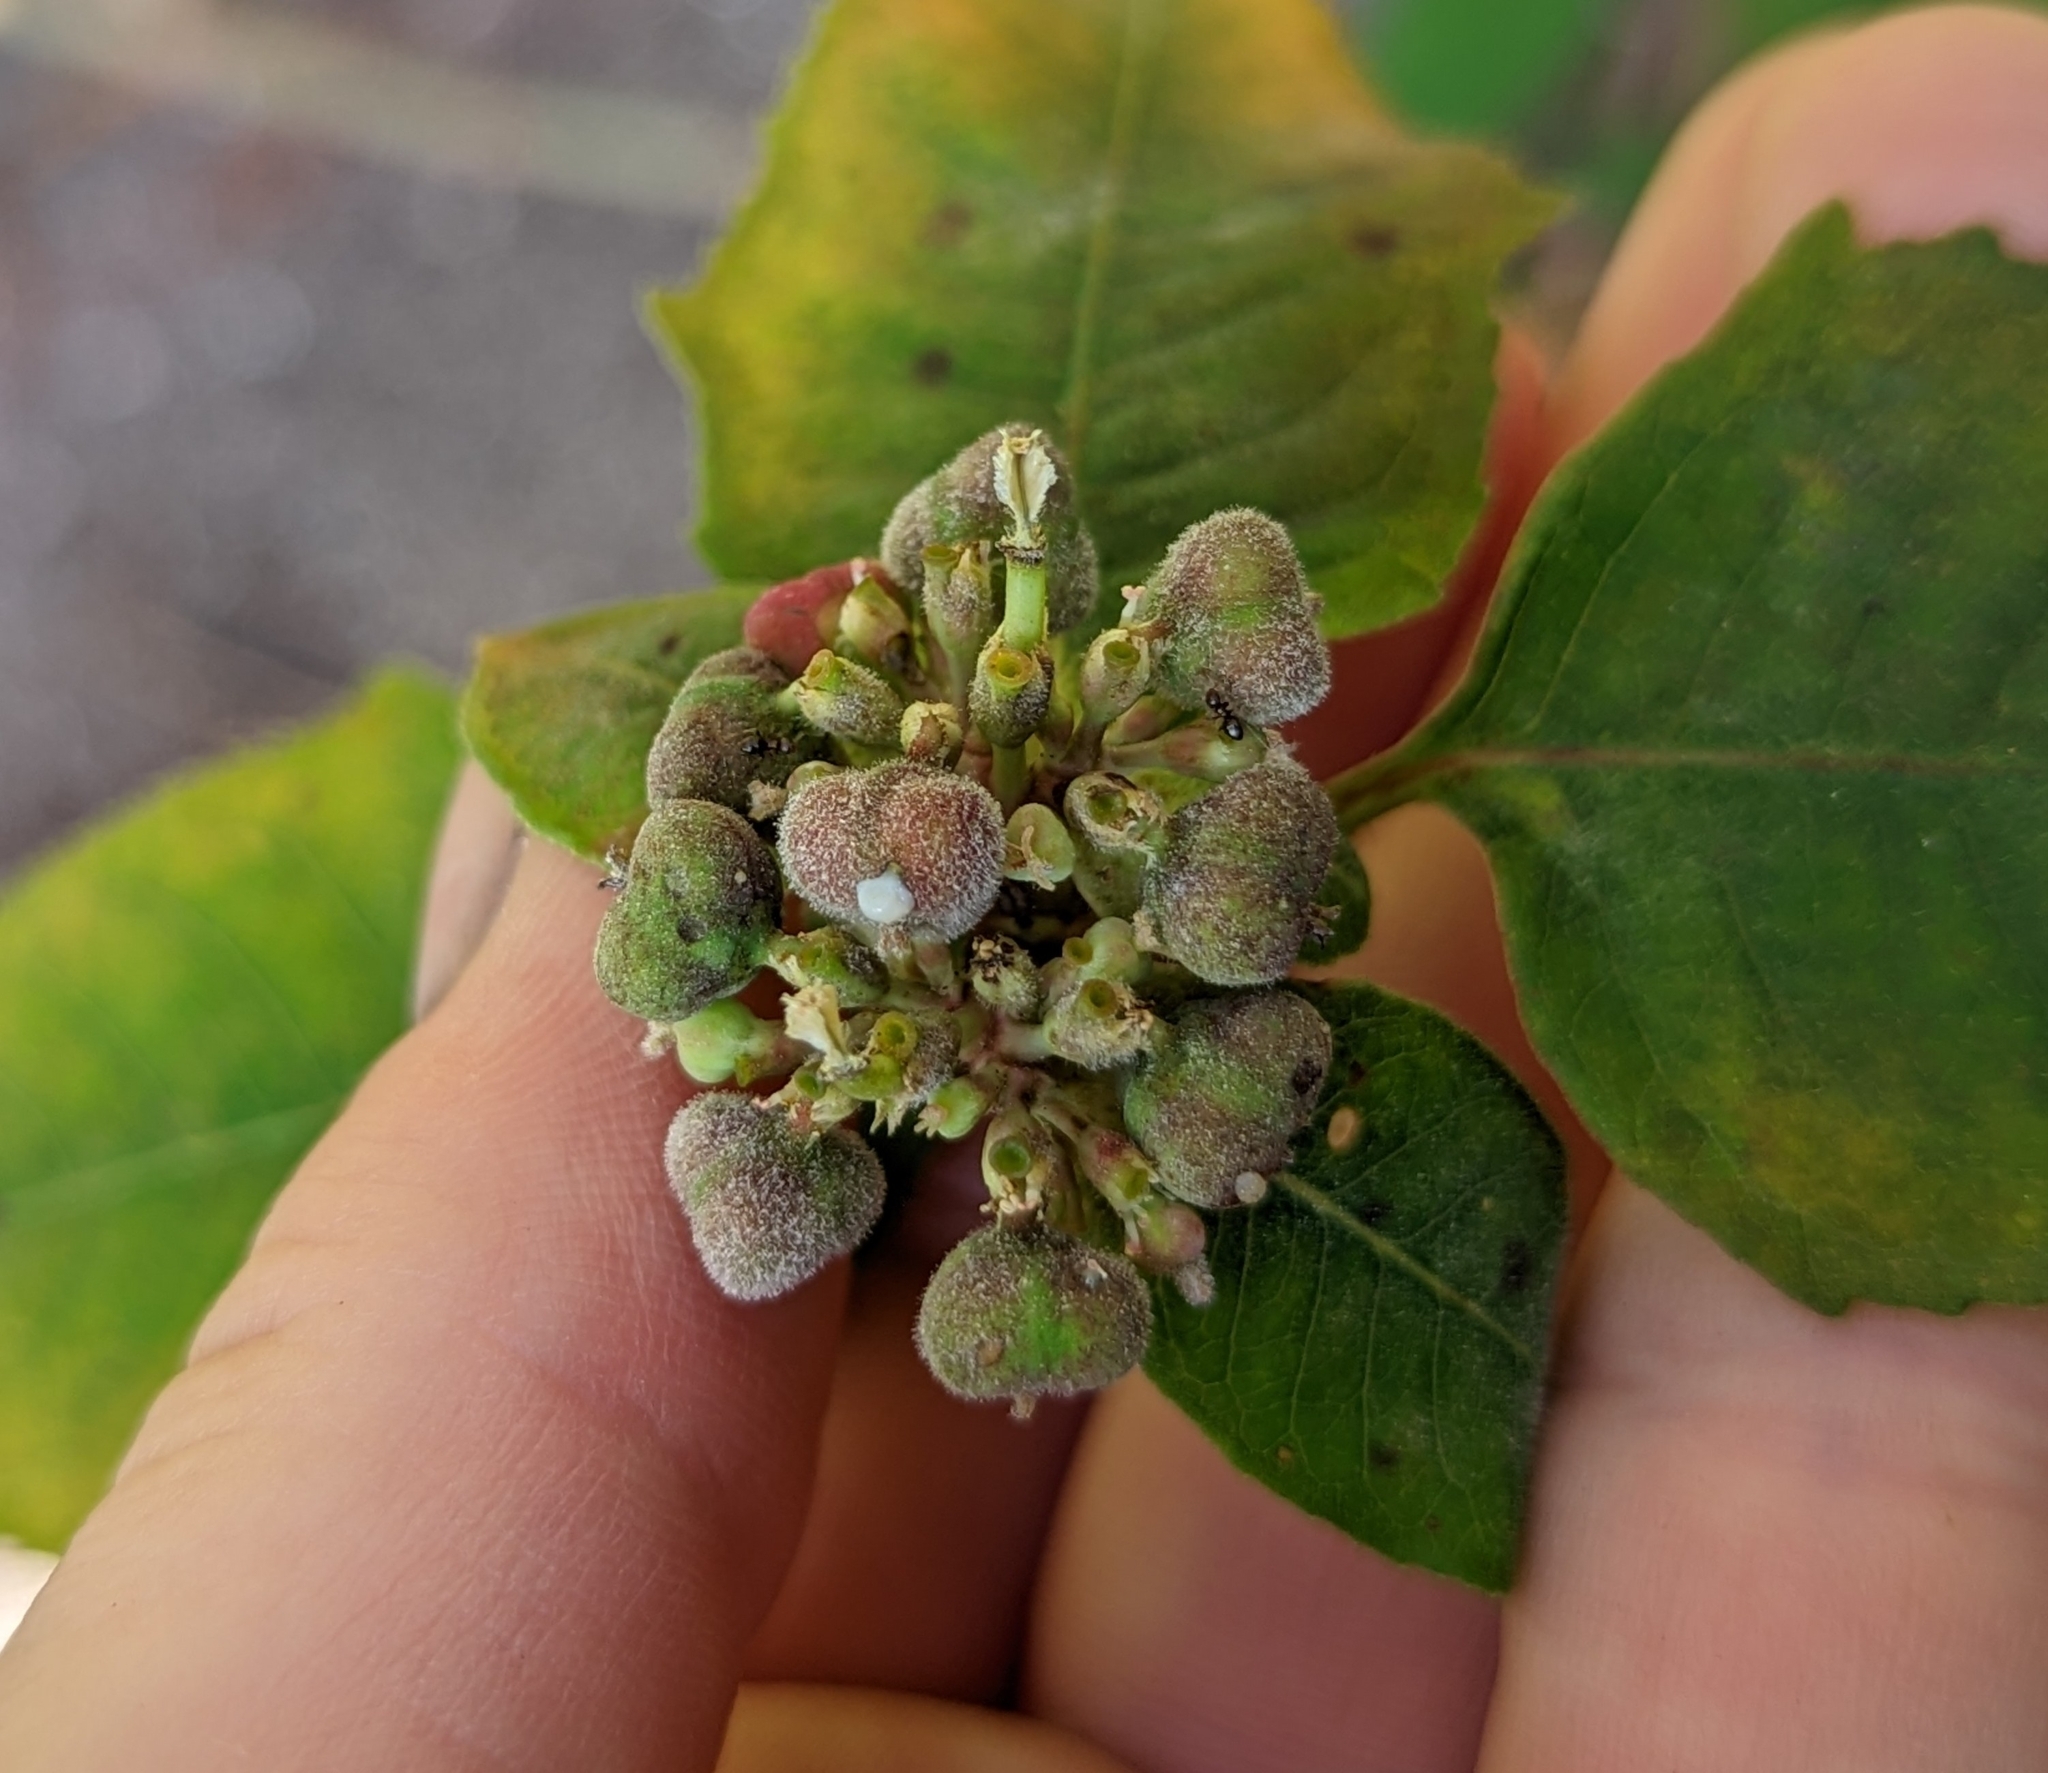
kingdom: Plantae
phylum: Tracheophyta
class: Magnoliopsida
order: Malpighiales
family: Euphorbiaceae
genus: Euphorbia
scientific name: Euphorbia heterophylla
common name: Mexican fireplant
